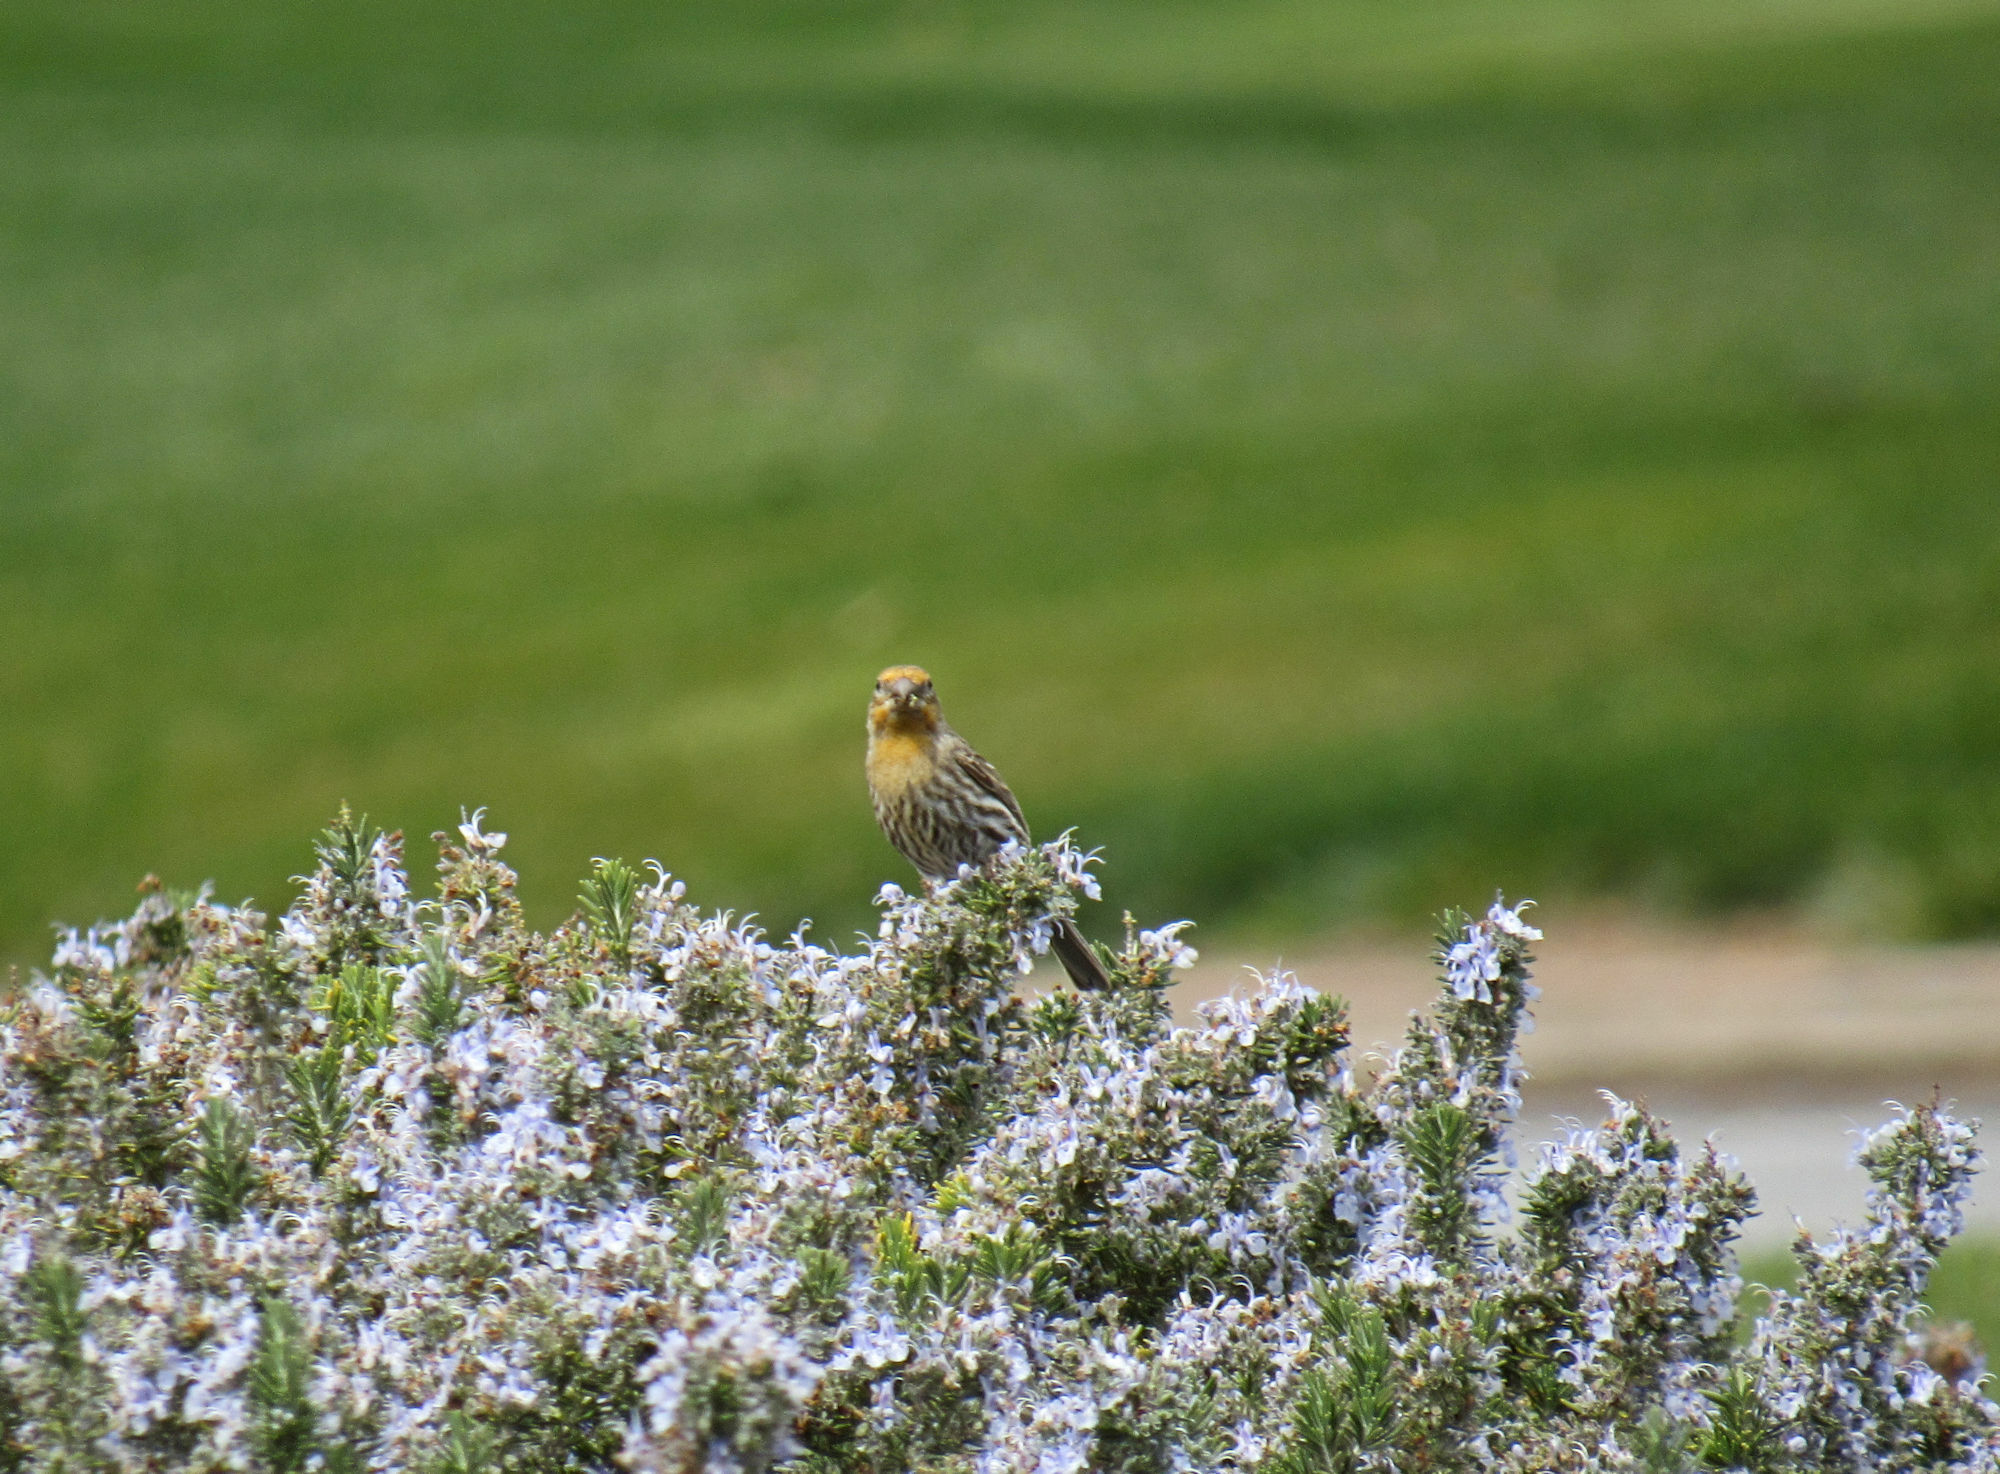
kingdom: Animalia
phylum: Chordata
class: Aves
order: Passeriformes
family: Fringillidae
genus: Haemorhous
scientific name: Haemorhous mexicanus
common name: House finch
